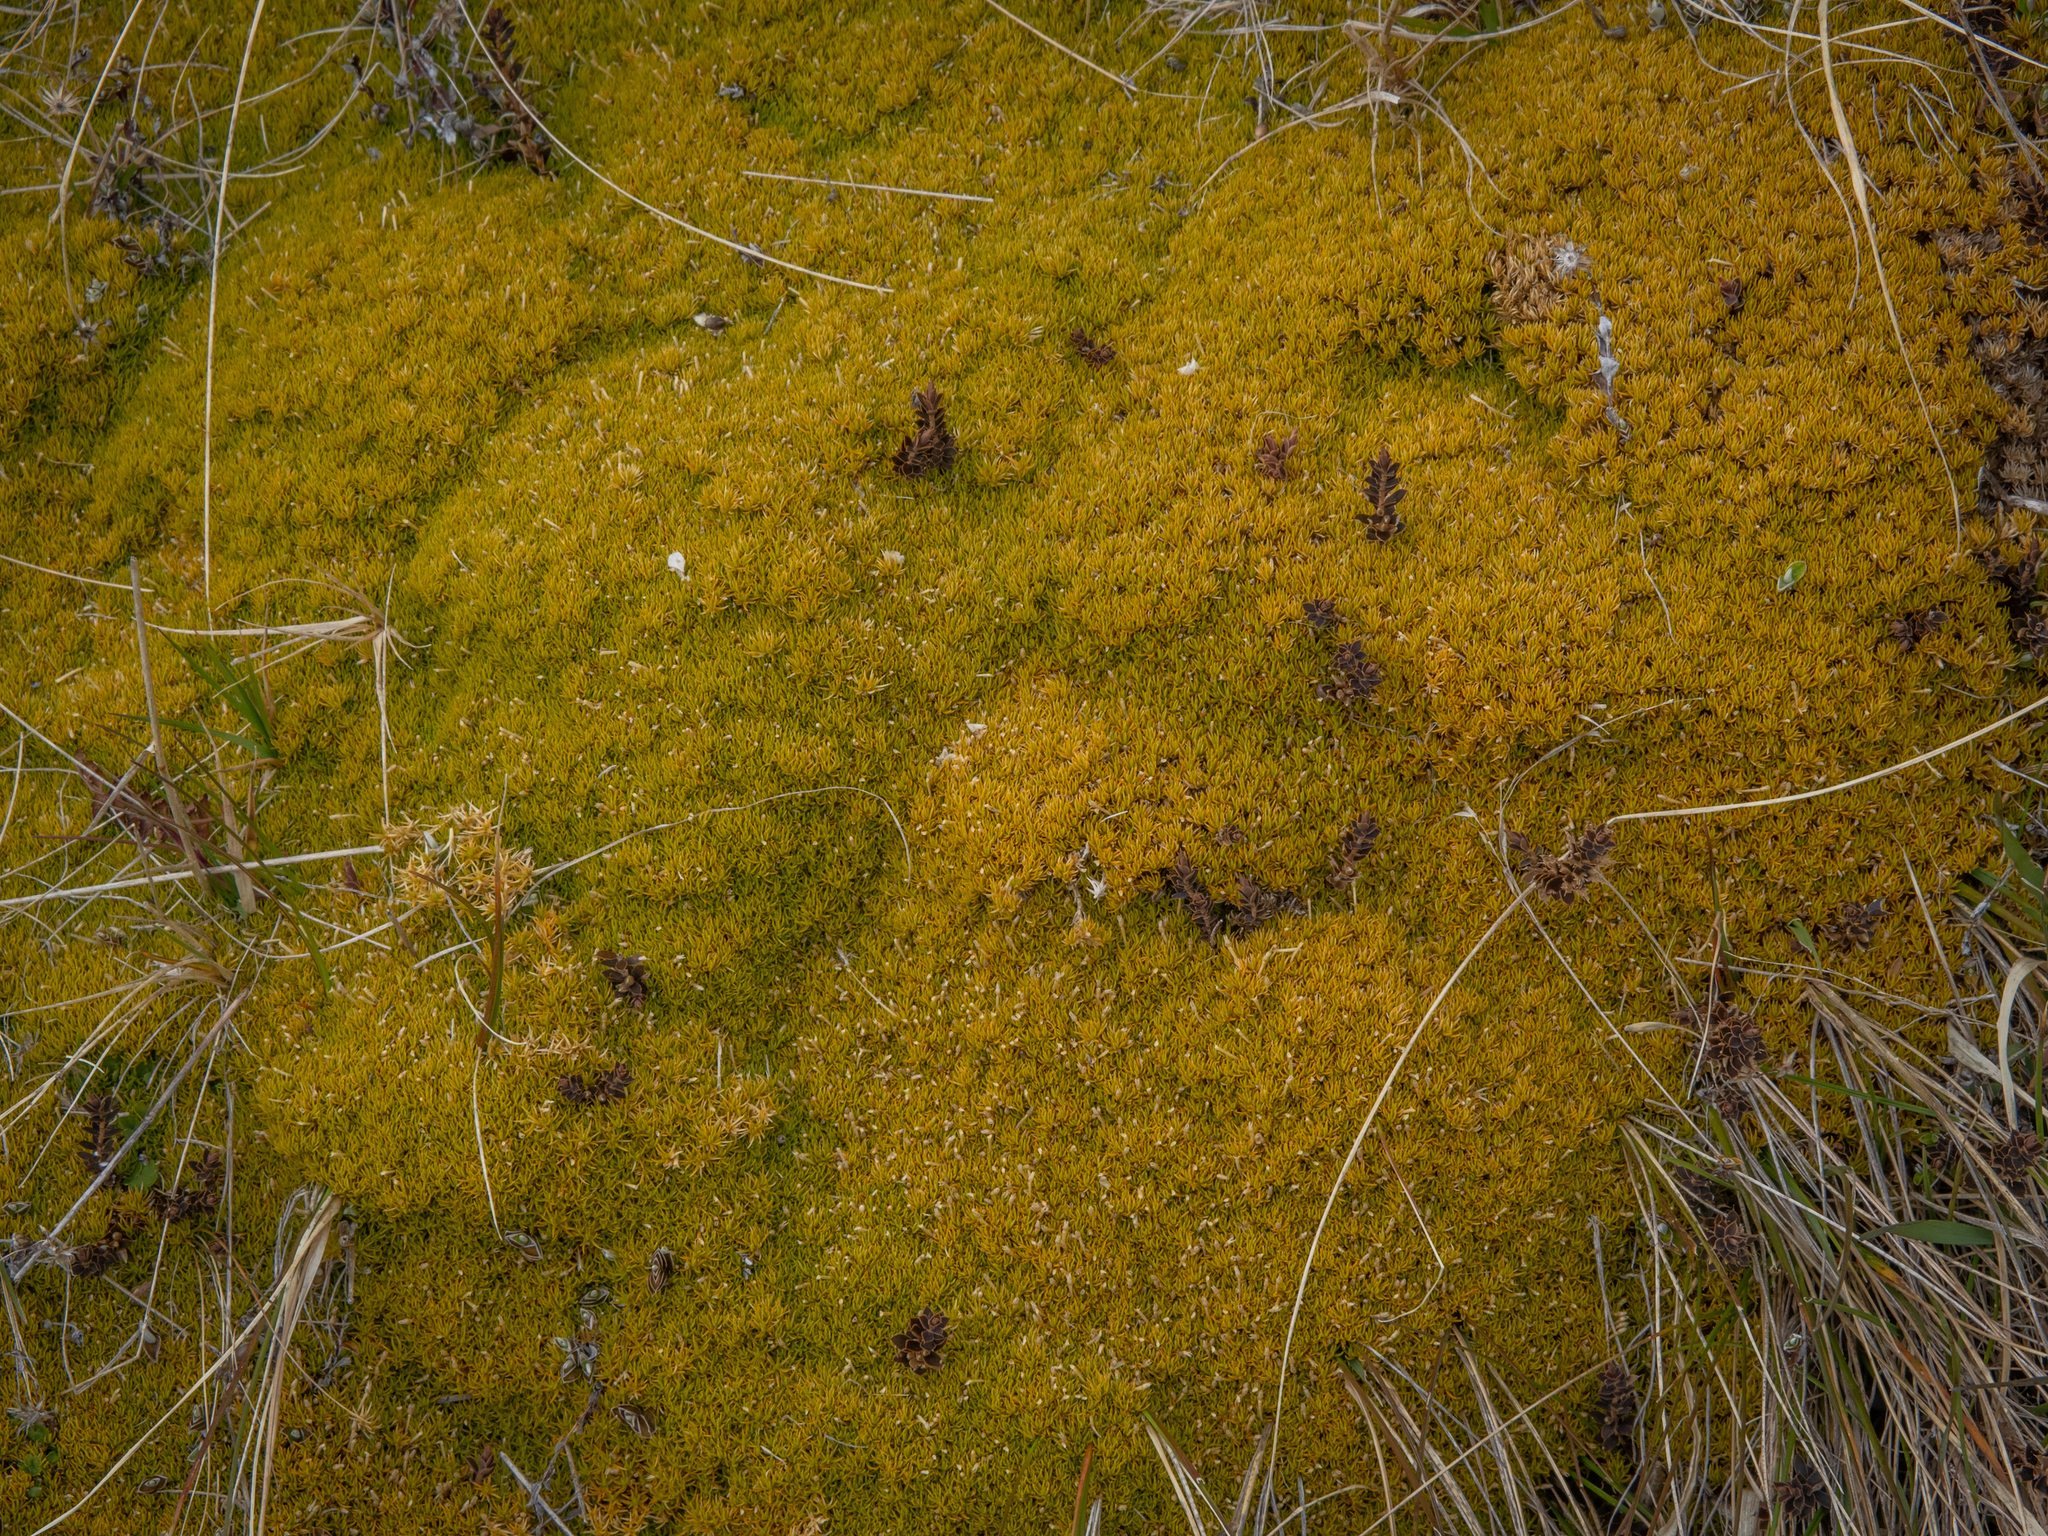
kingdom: Plantae
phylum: Tracheophyta
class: Magnoliopsida
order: Caryophyllales
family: Caryophyllaceae
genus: Scleranthus
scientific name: Scleranthus uniflorus
